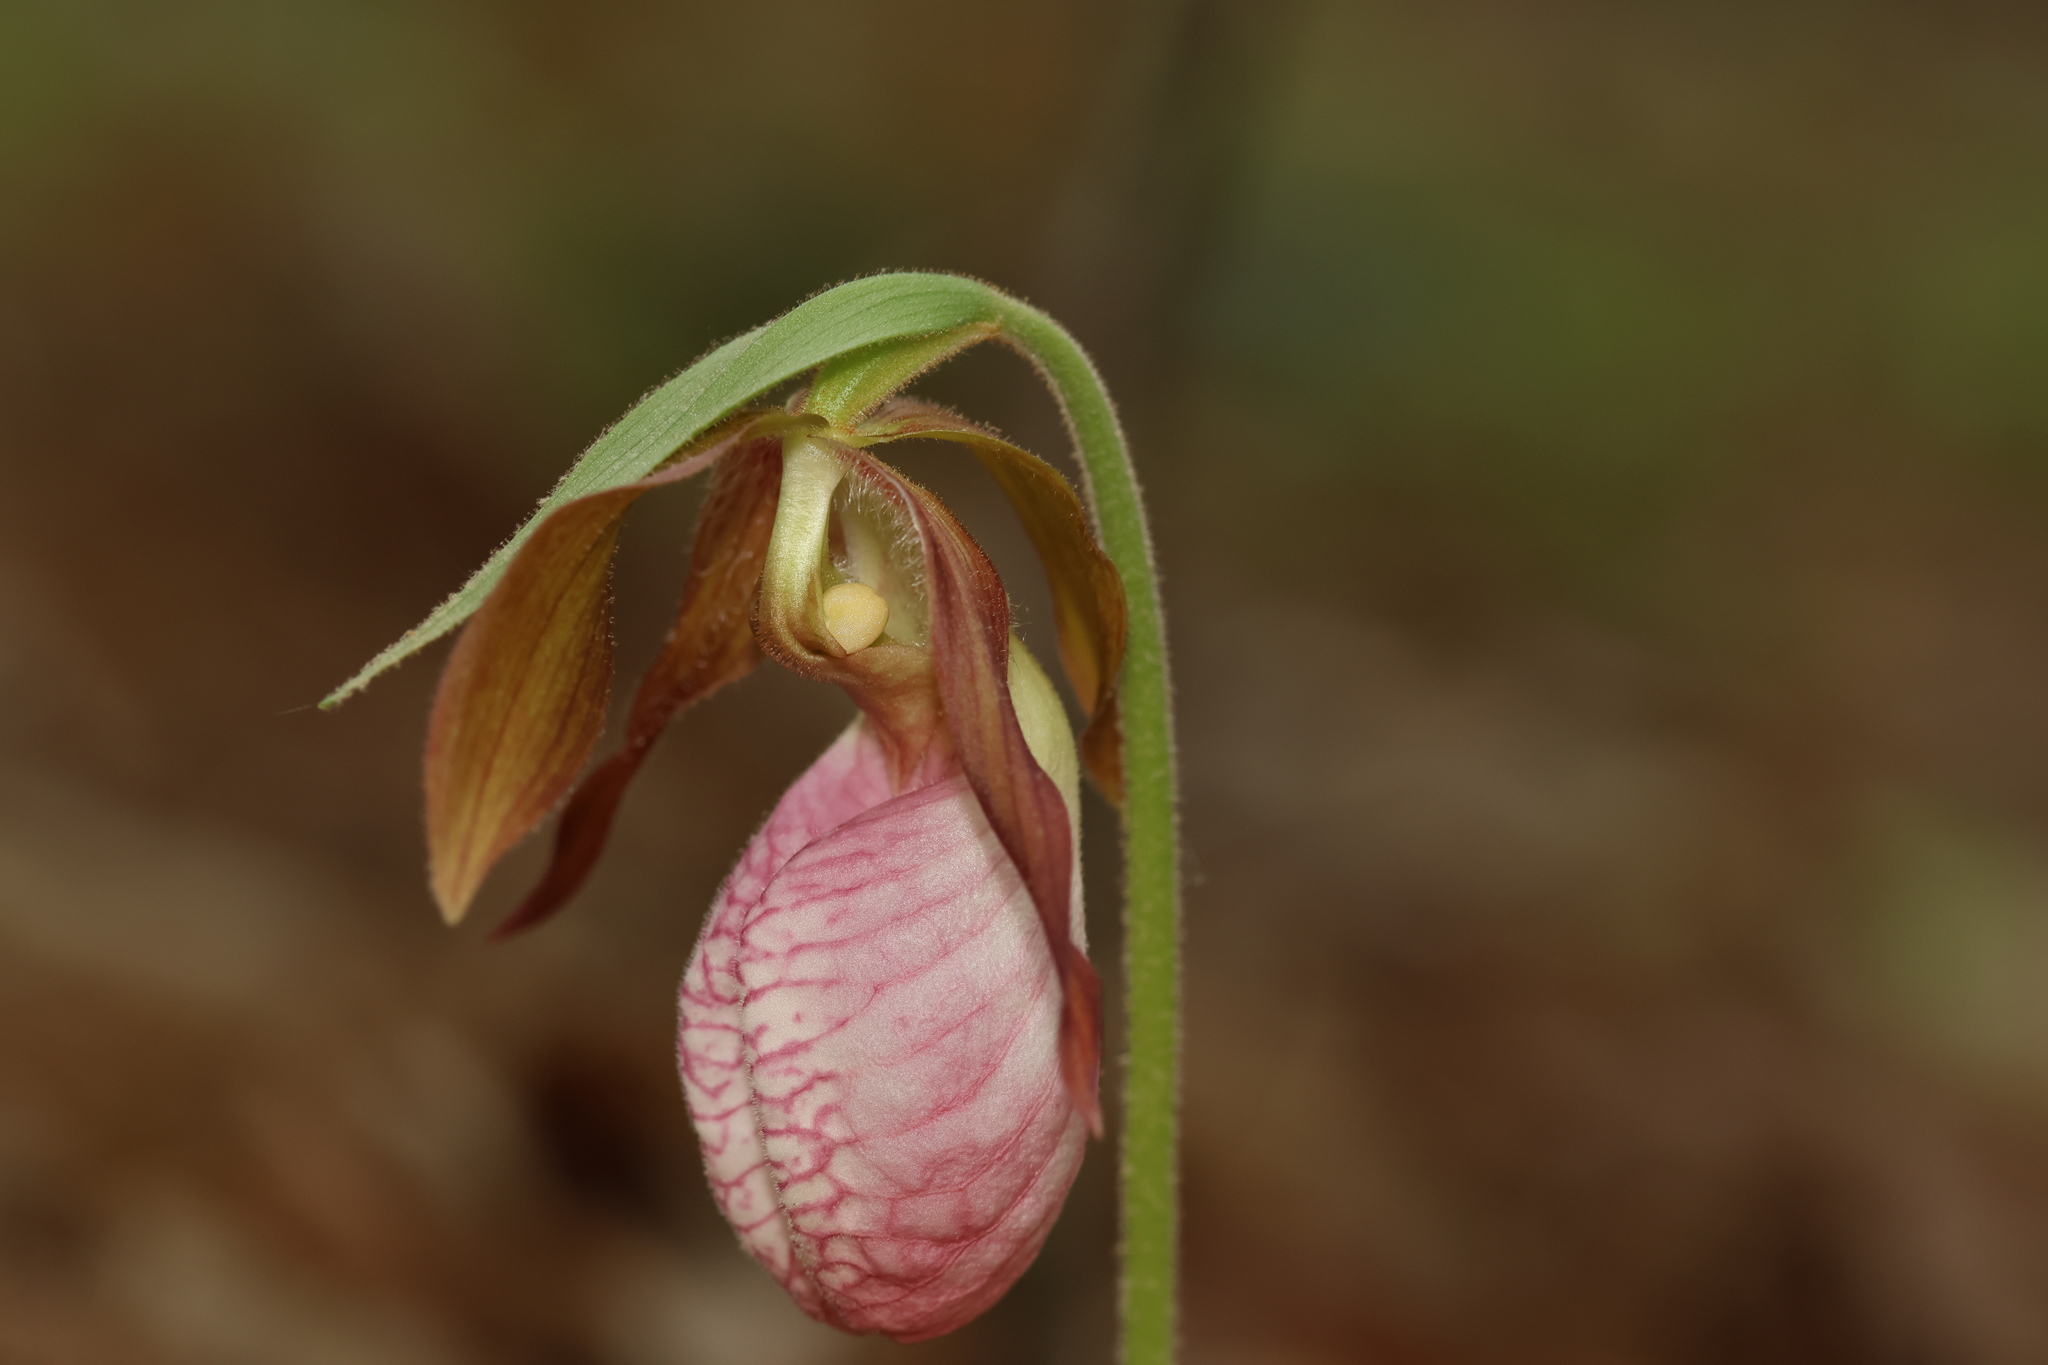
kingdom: Plantae
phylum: Tracheophyta
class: Liliopsida
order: Asparagales
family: Orchidaceae
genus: Cypripedium
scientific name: Cypripedium acaule
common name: Pink lady's-slipper
